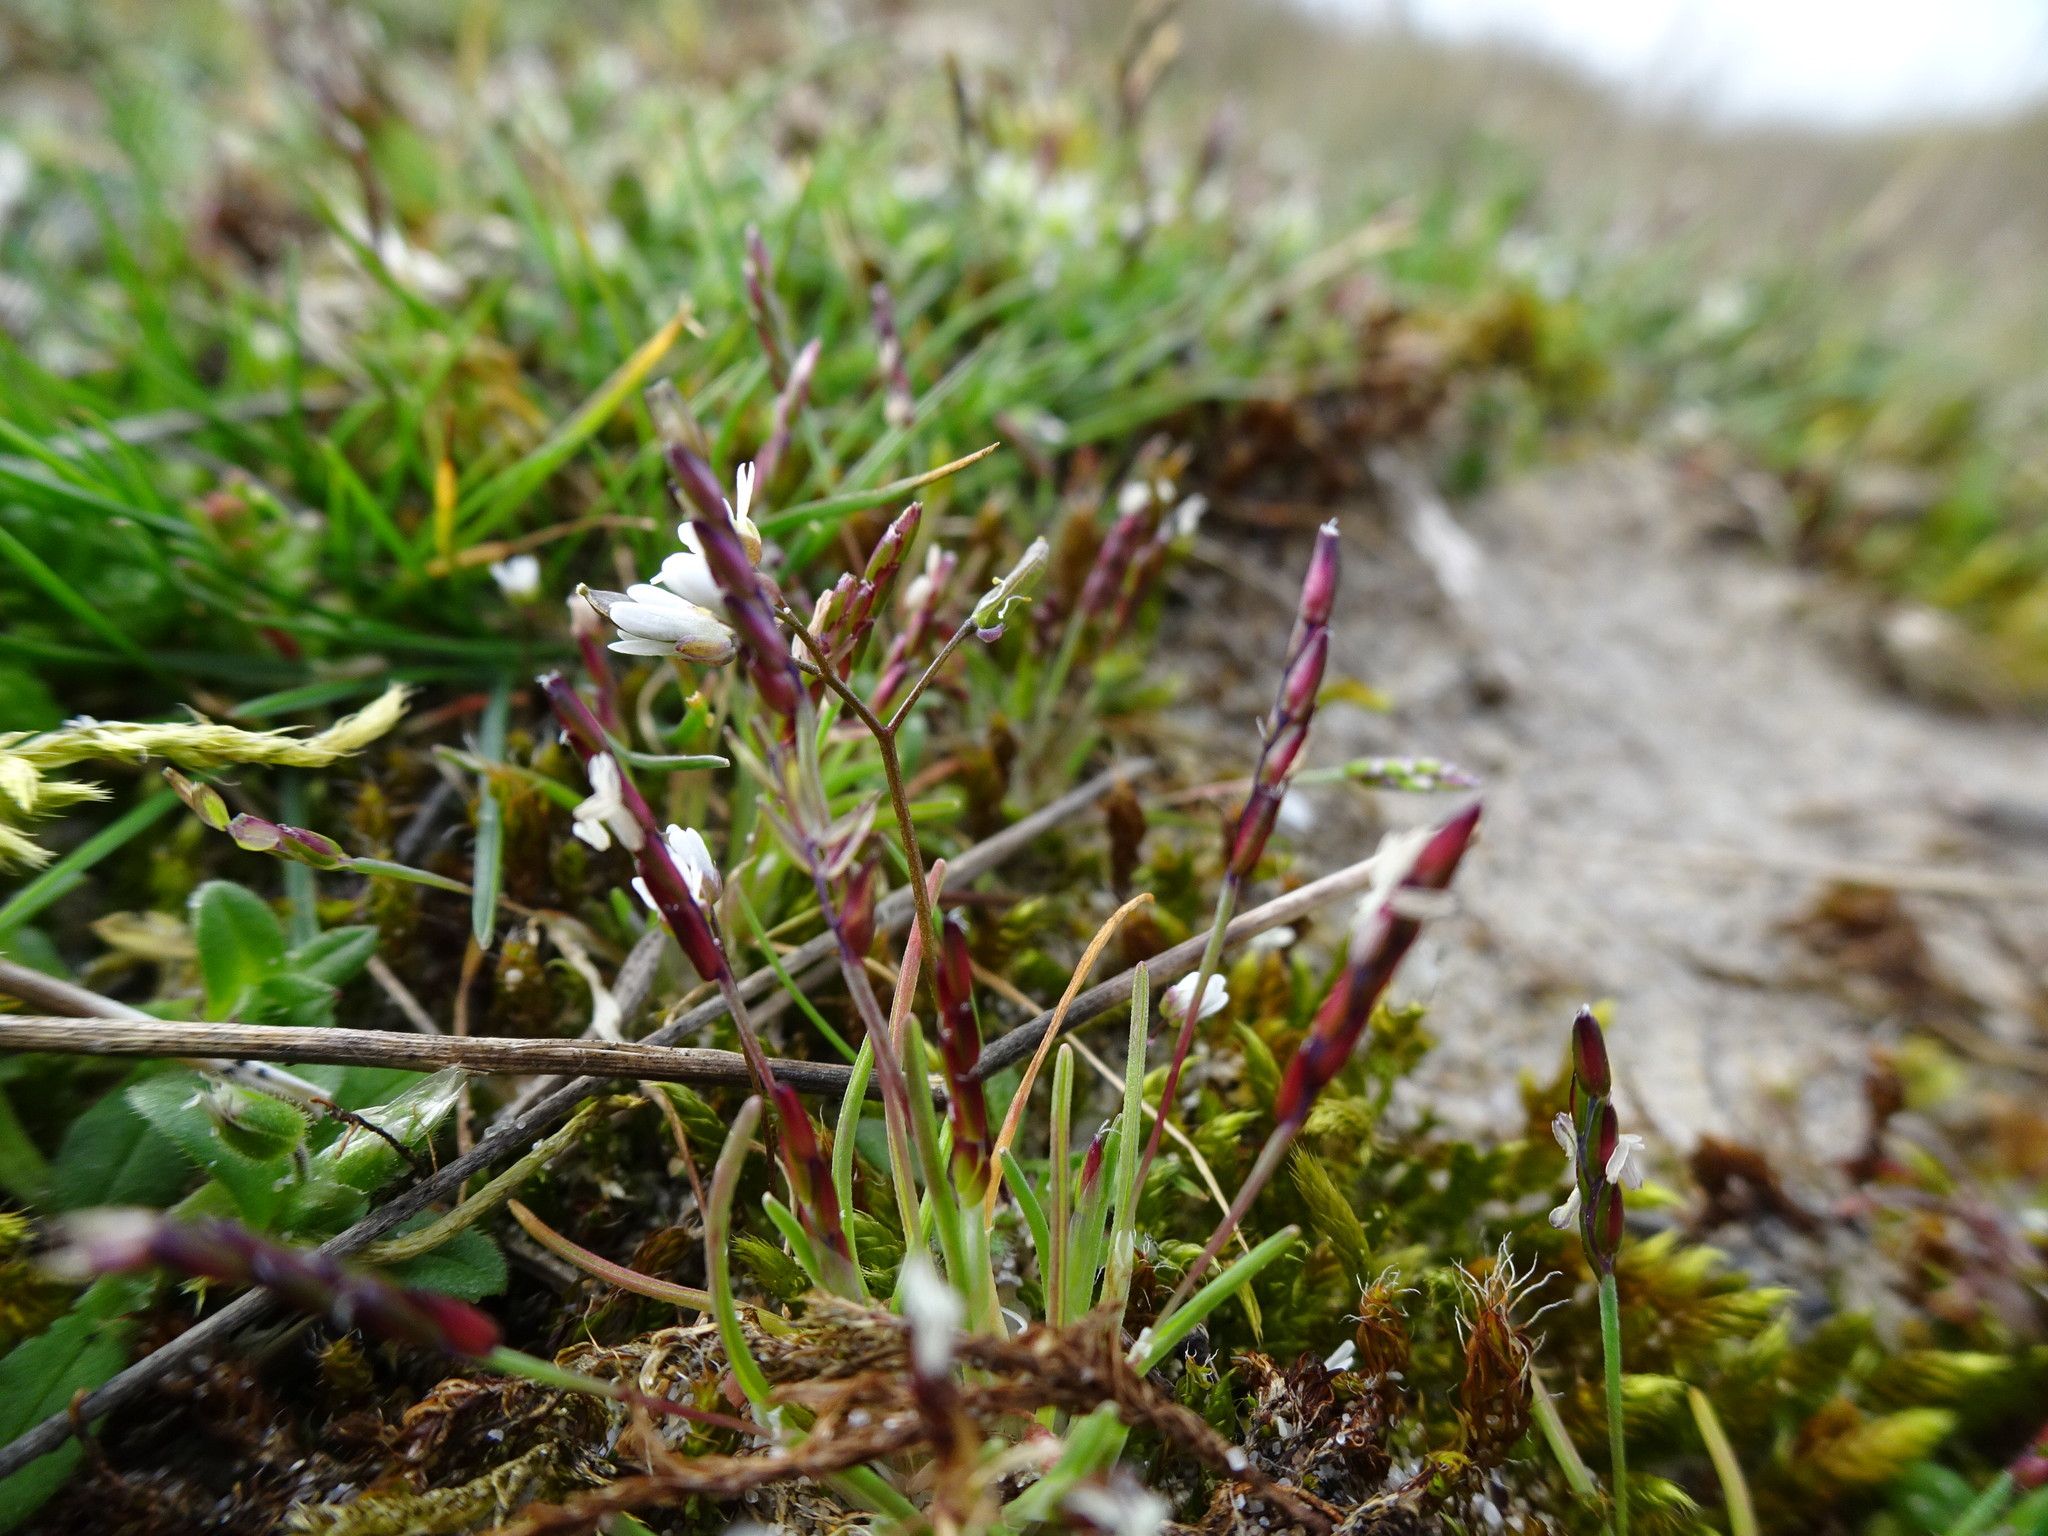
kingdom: Plantae
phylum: Tracheophyta
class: Liliopsida
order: Poales
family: Poaceae
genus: Mibora
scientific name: Mibora minima
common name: Early sand-grass
